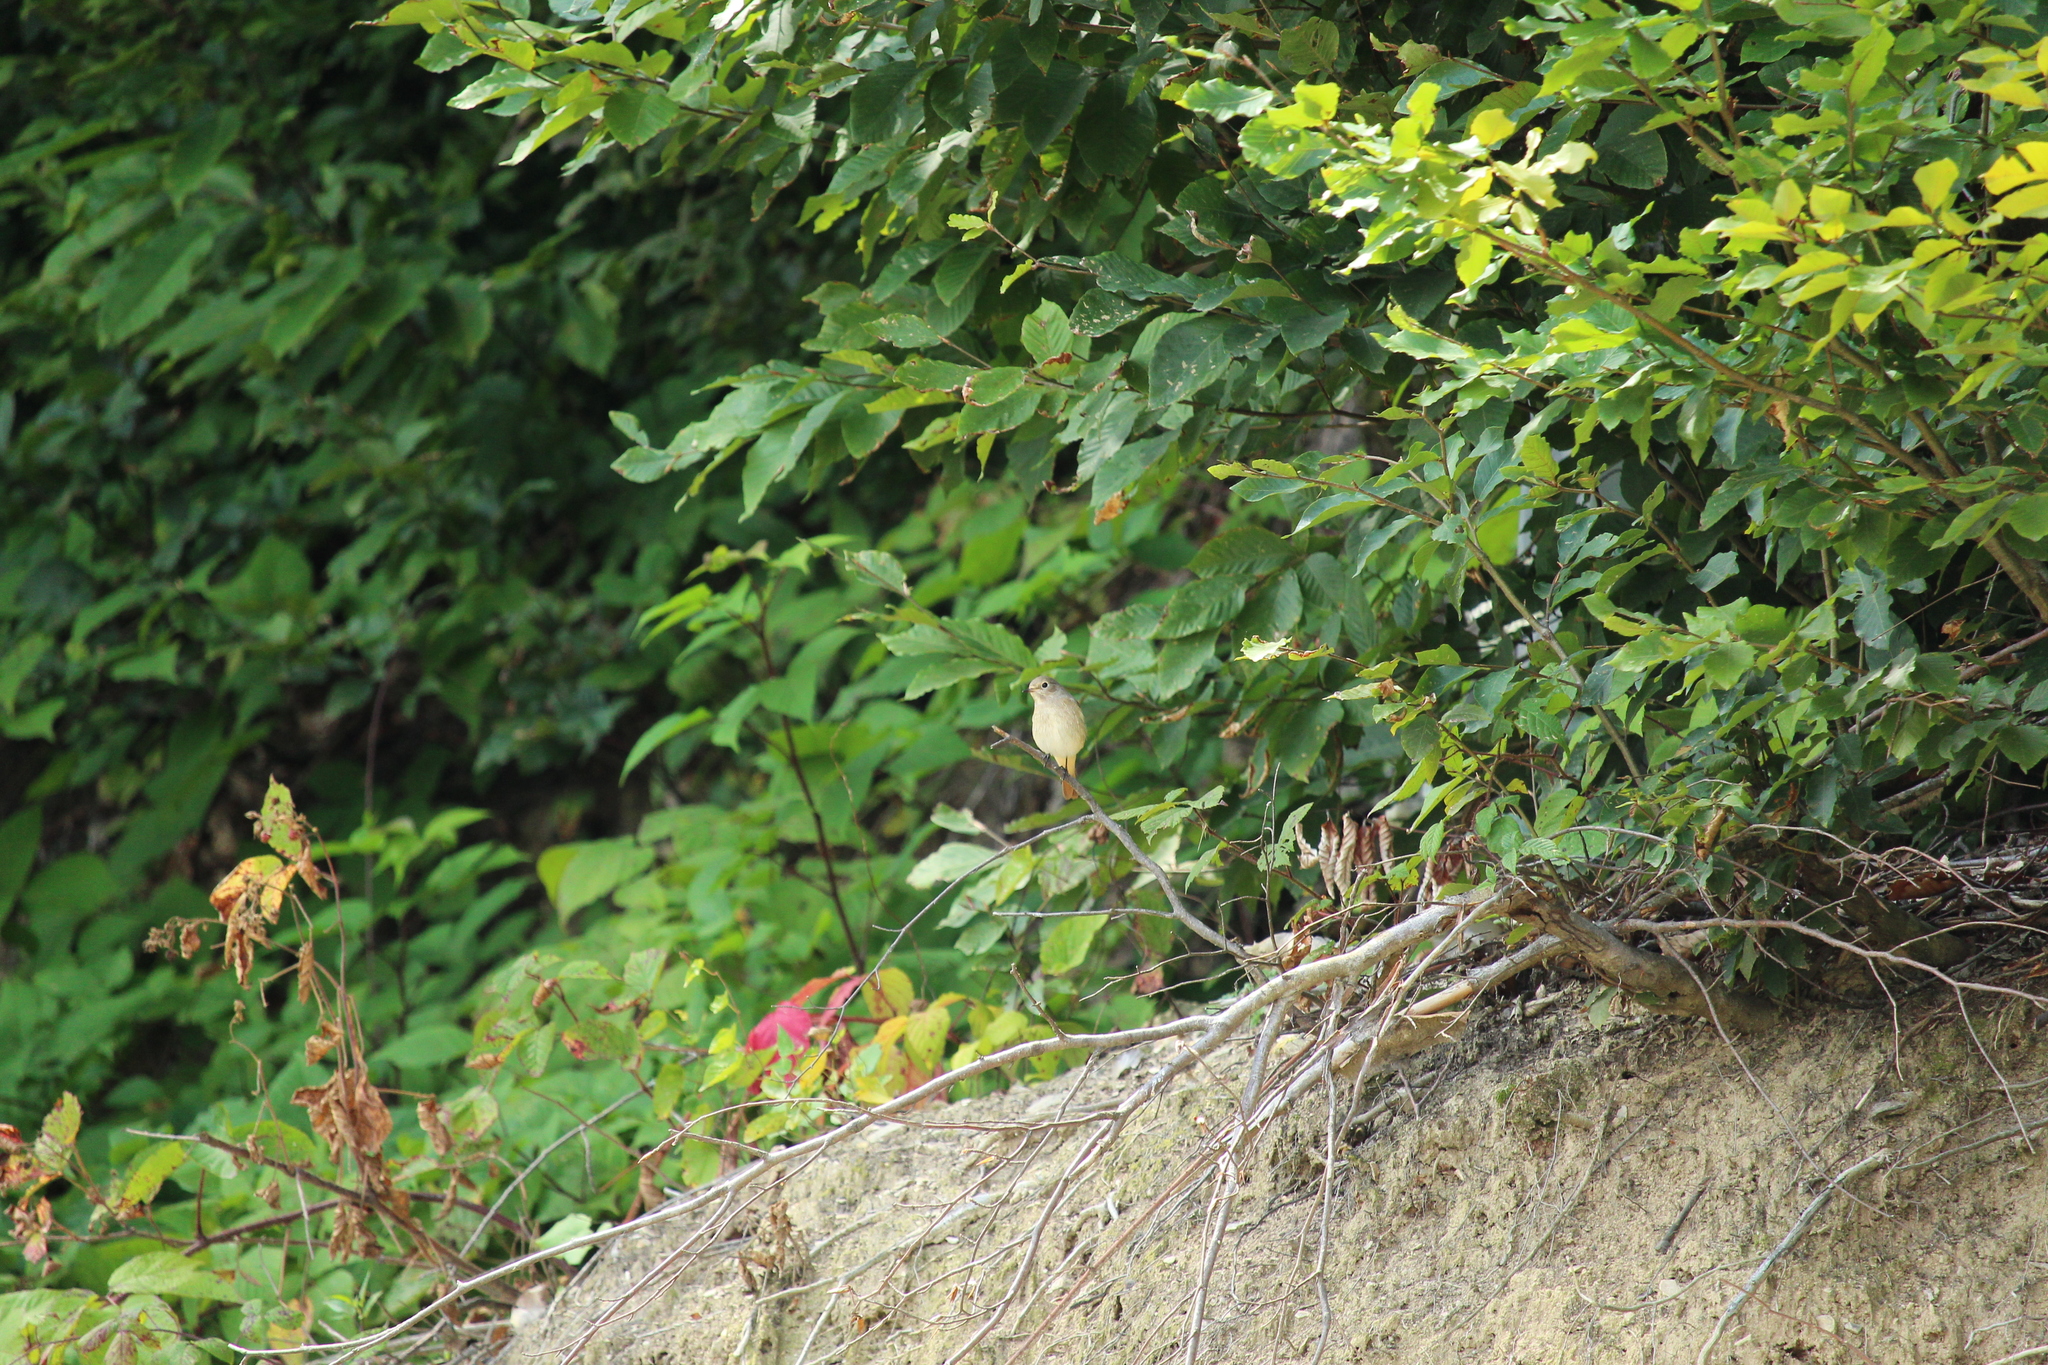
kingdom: Animalia
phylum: Chordata
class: Aves
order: Passeriformes
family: Muscicapidae
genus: Phoenicurus
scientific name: Phoenicurus phoenicurus
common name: Common redstart
